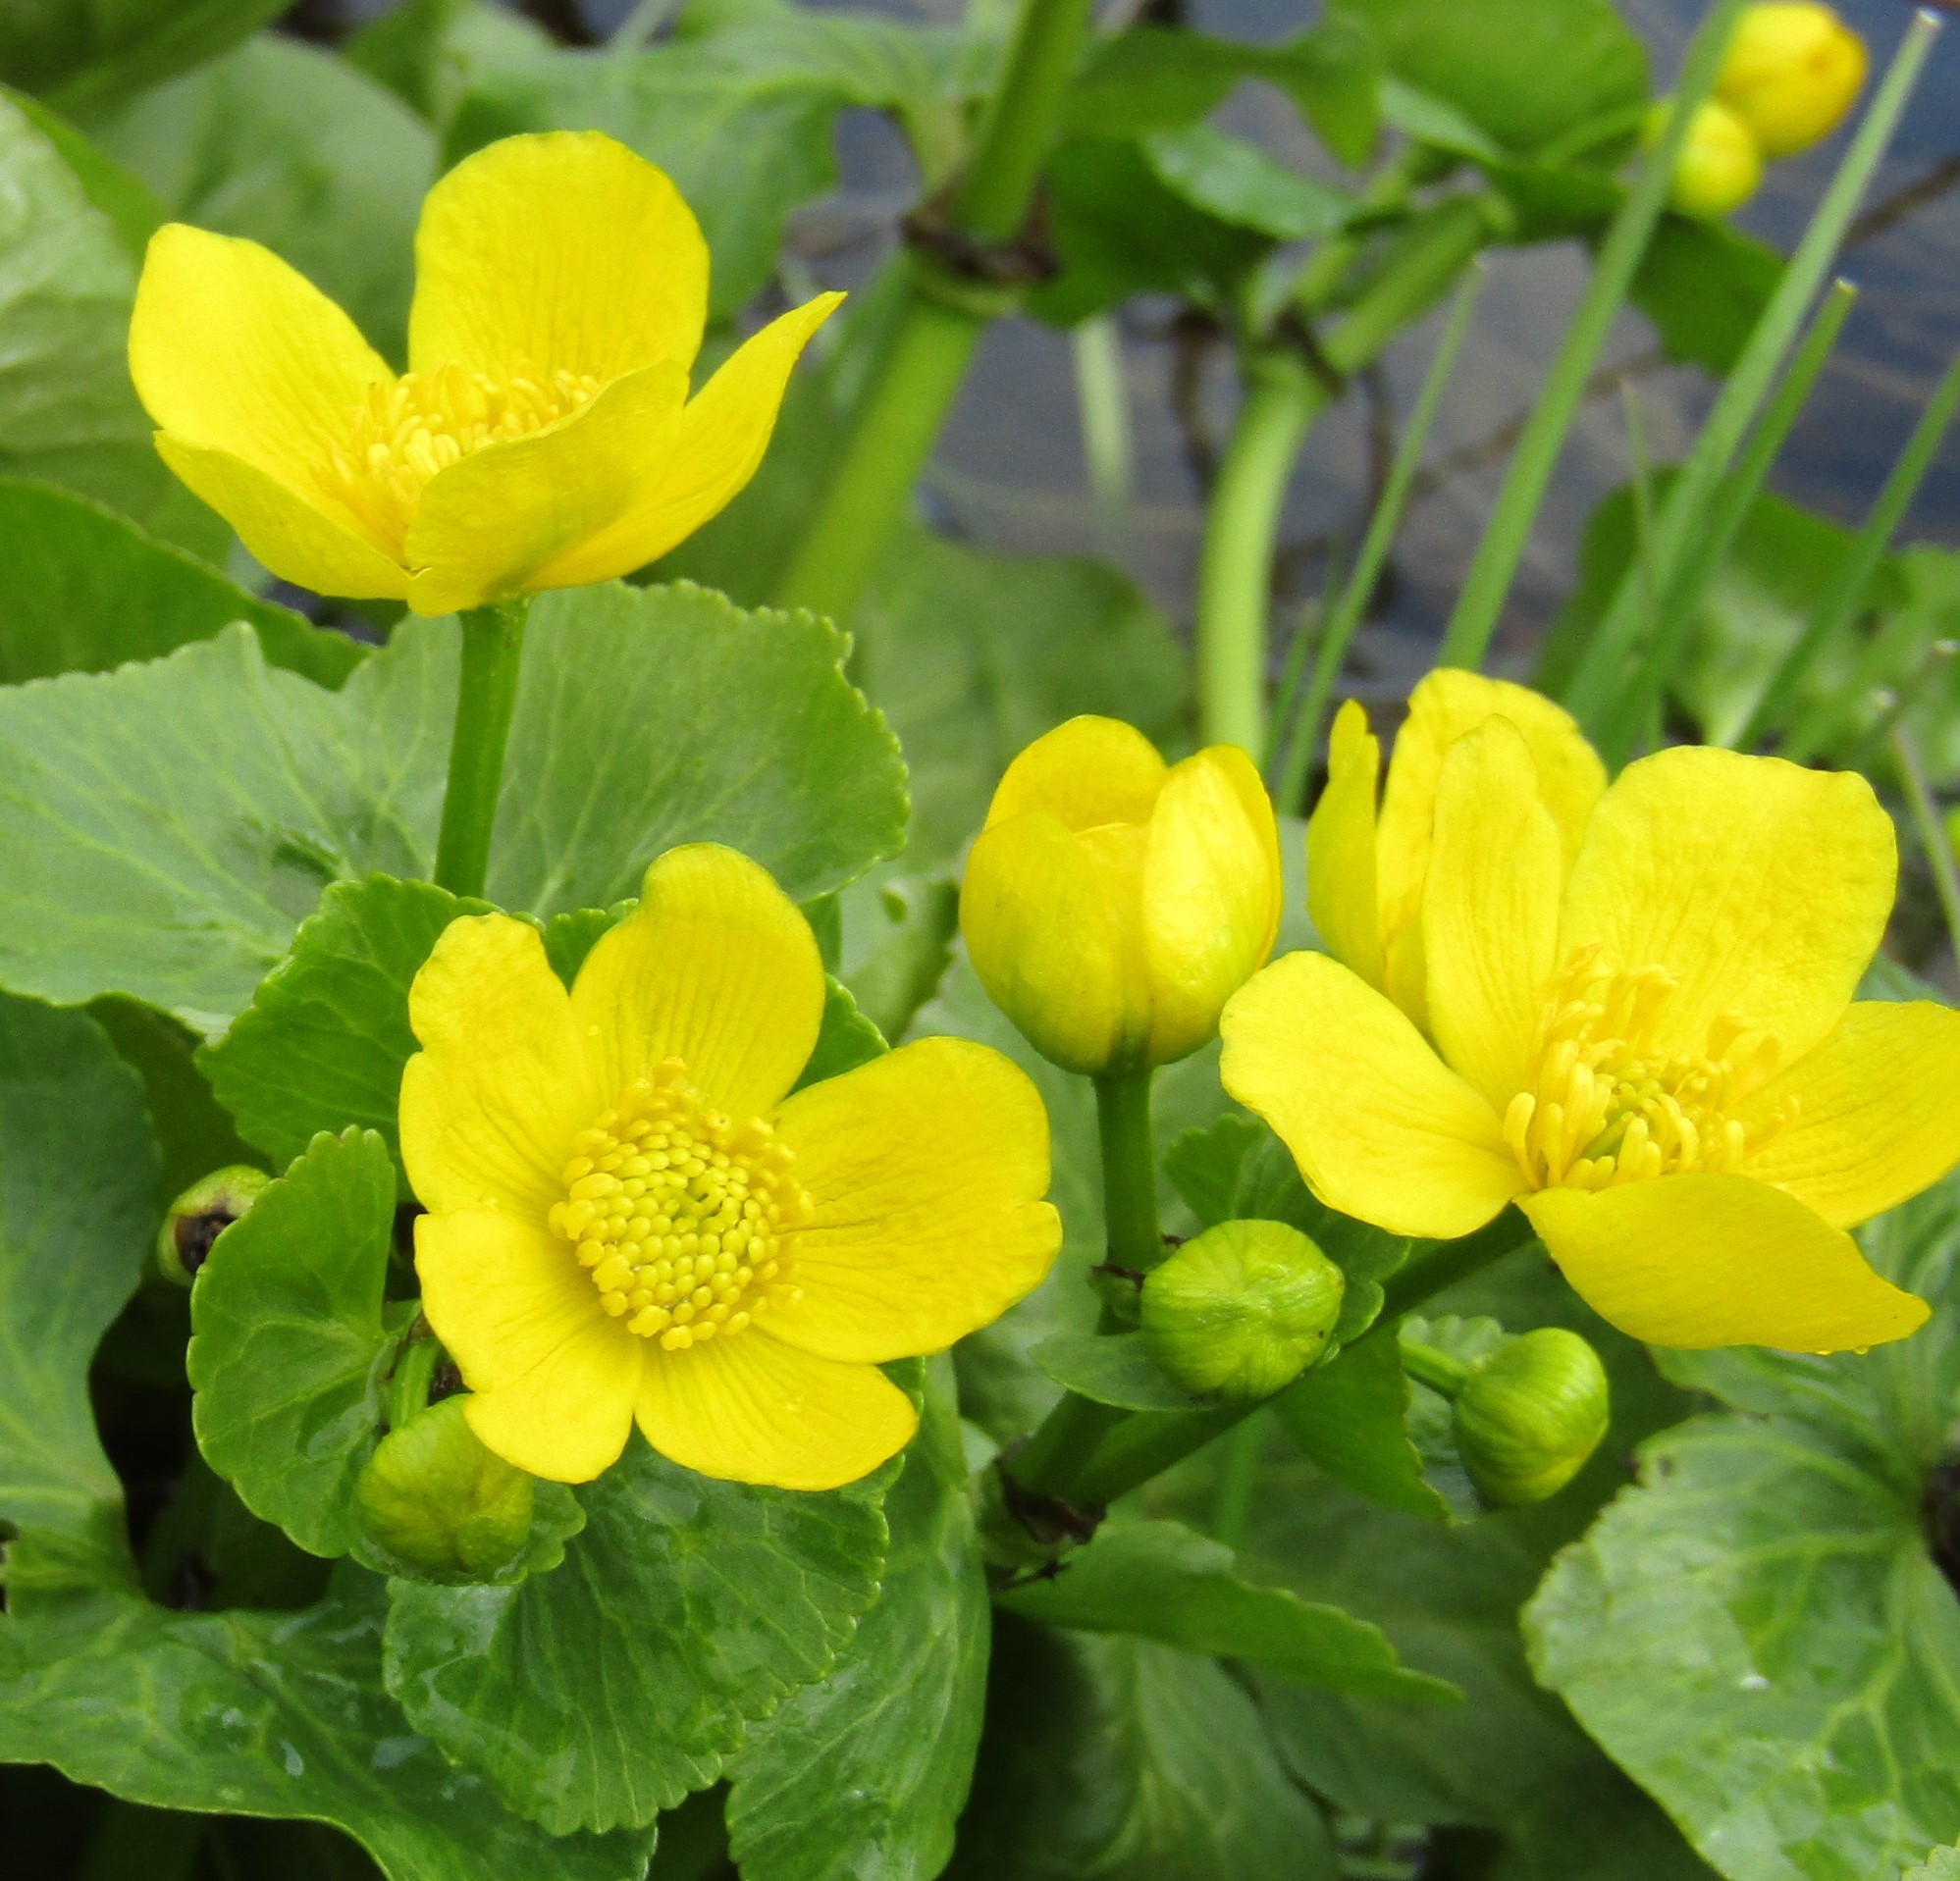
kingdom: Plantae
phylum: Tracheophyta
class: Magnoliopsida
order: Ranunculales
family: Ranunculaceae
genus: Caltha
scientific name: Caltha palustris
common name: Marsh marigold
